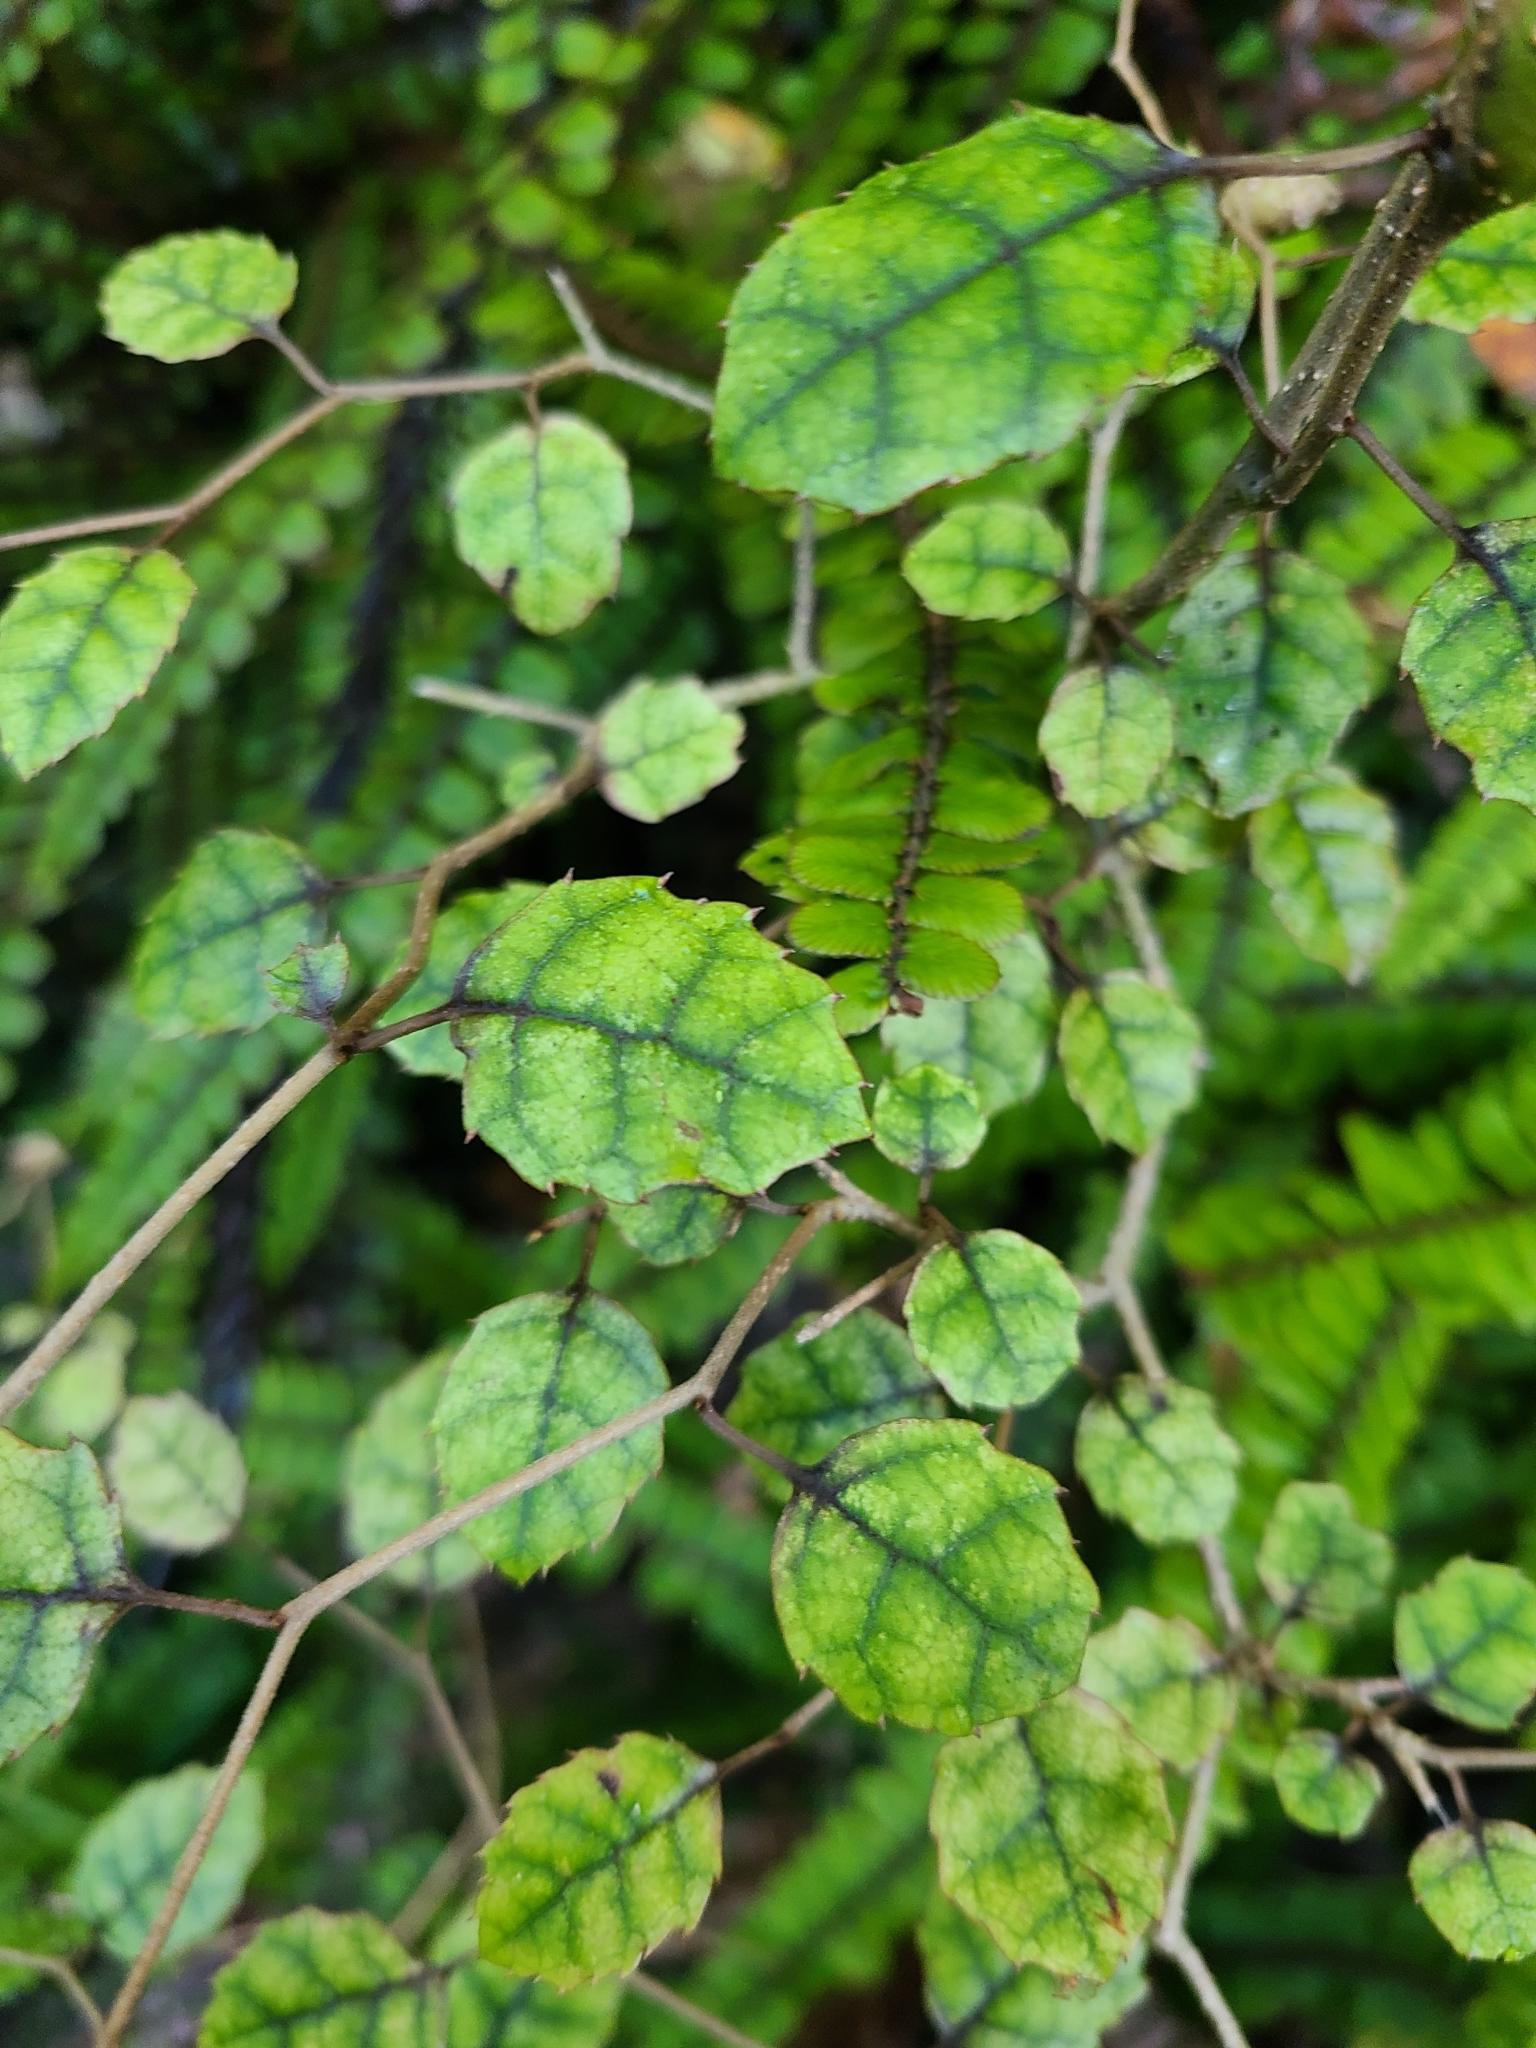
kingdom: Plantae
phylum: Tracheophyta
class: Magnoliopsida
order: Asterales
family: Rousseaceae
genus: Carpodetus
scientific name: Carpodetus serratus
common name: White mapau
